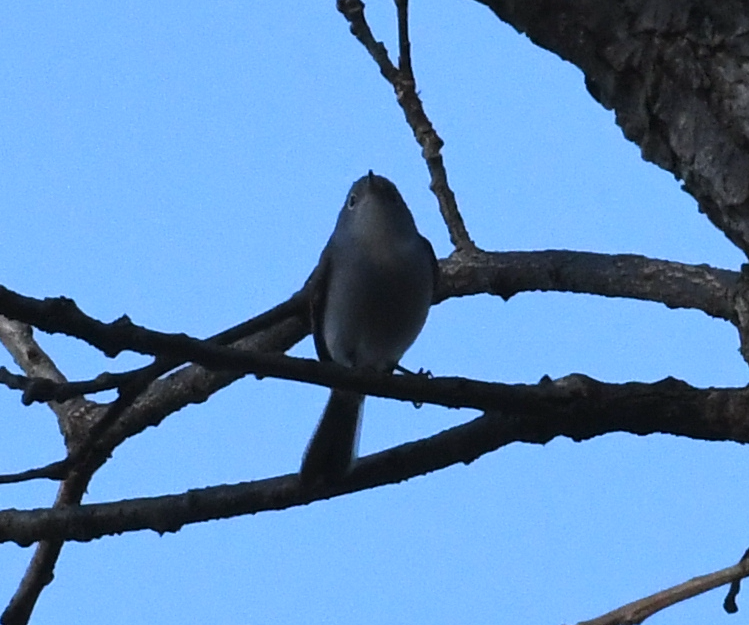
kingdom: Animalia
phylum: Chordata
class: Aves
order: Passeriformes
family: Polioptilidae
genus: Polioptila
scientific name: Polioptila caerulea
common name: Blue-gray gnatcatcher
